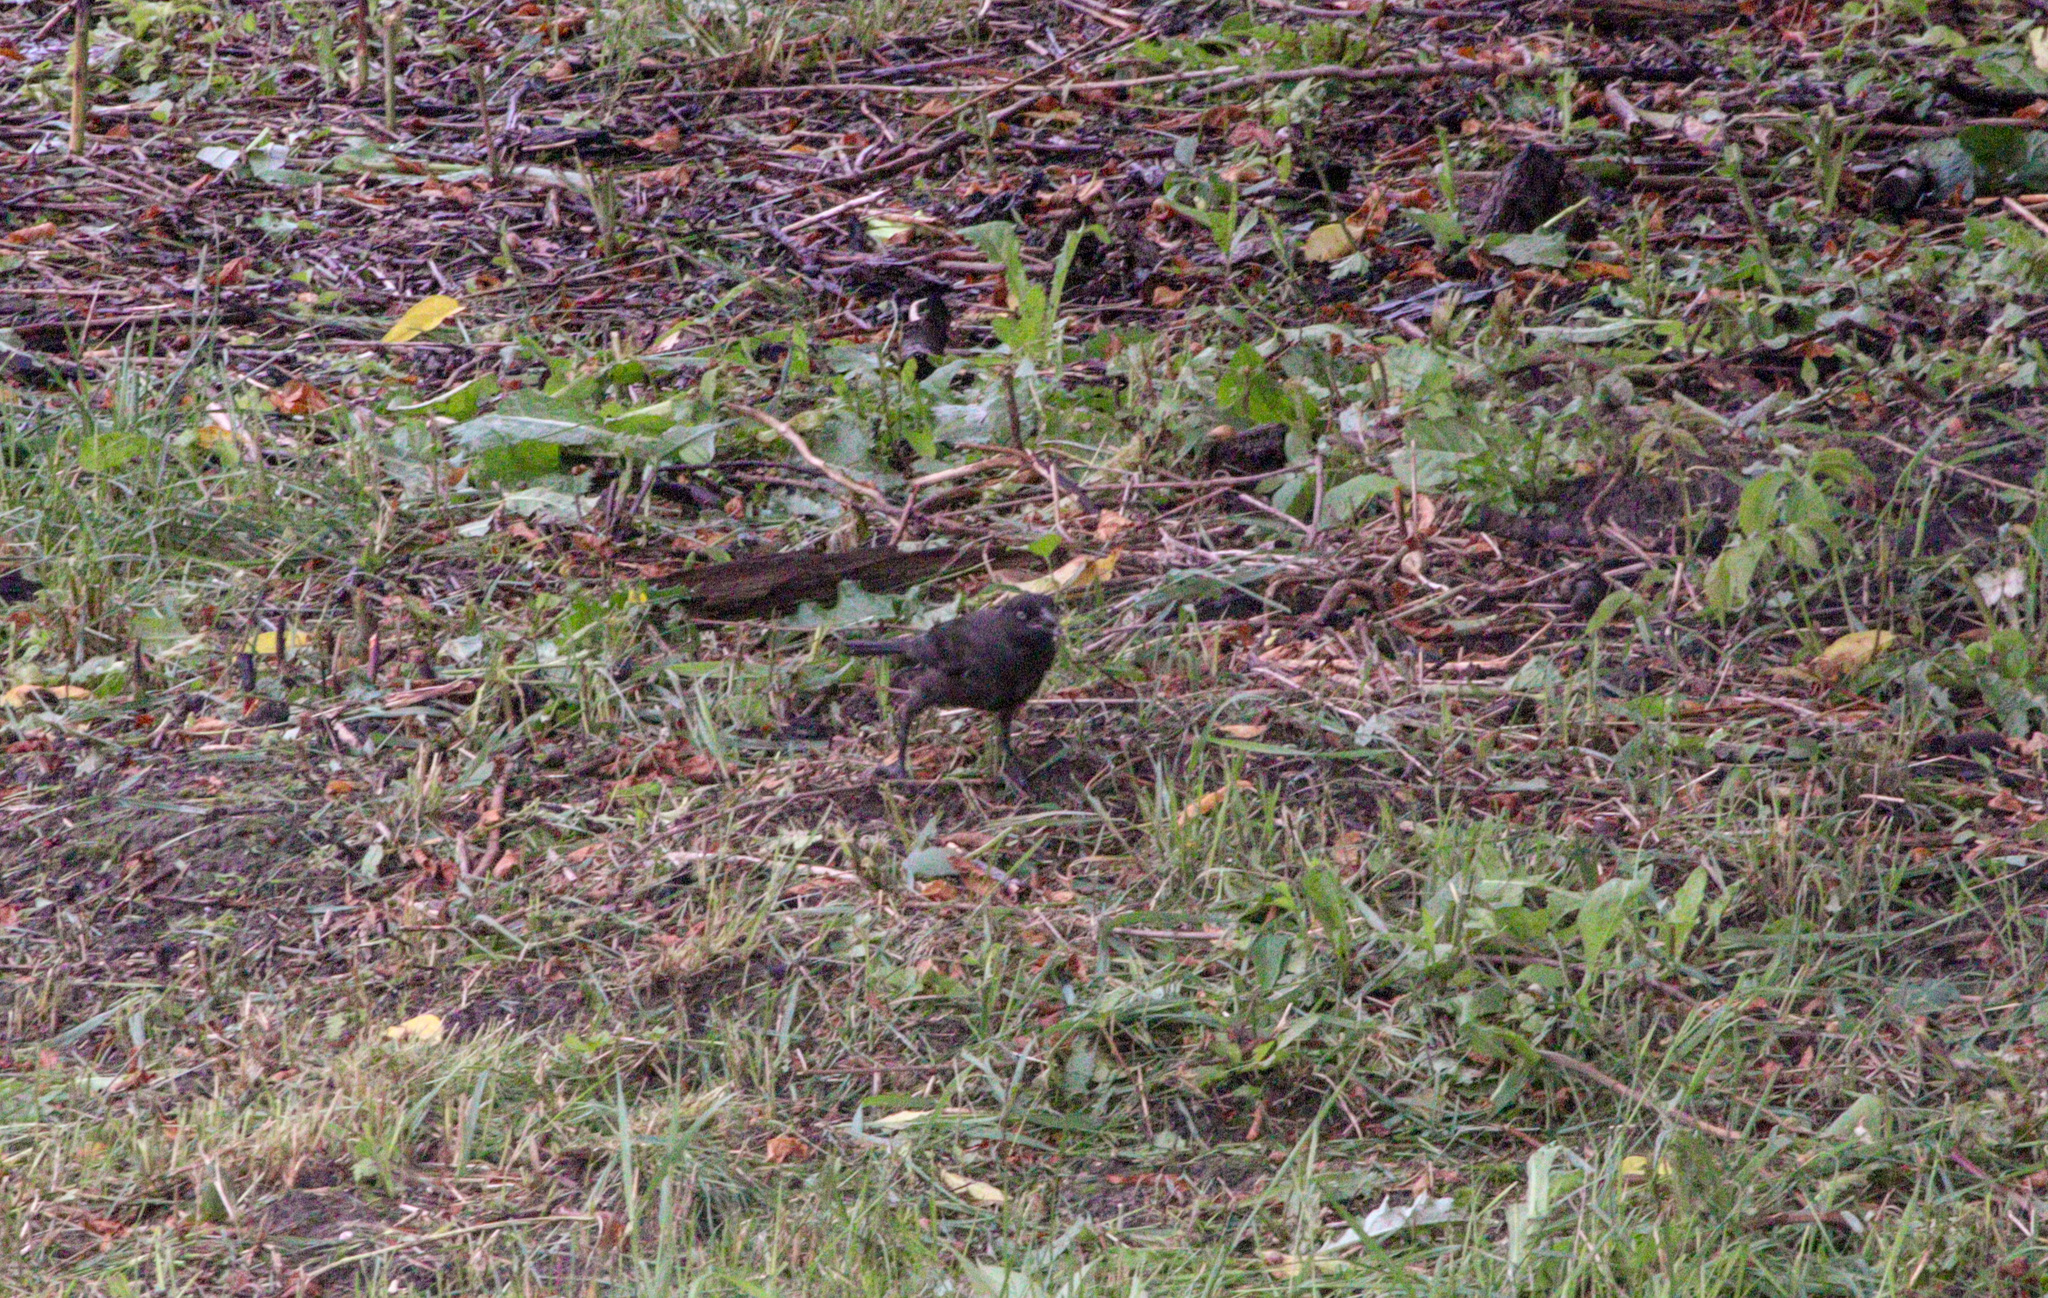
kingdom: Animalia
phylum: Chordata
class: Aves
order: Passeriformes
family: Icteridae
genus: Quiscalus
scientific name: Quiscalus quiscula
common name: Common grackle
